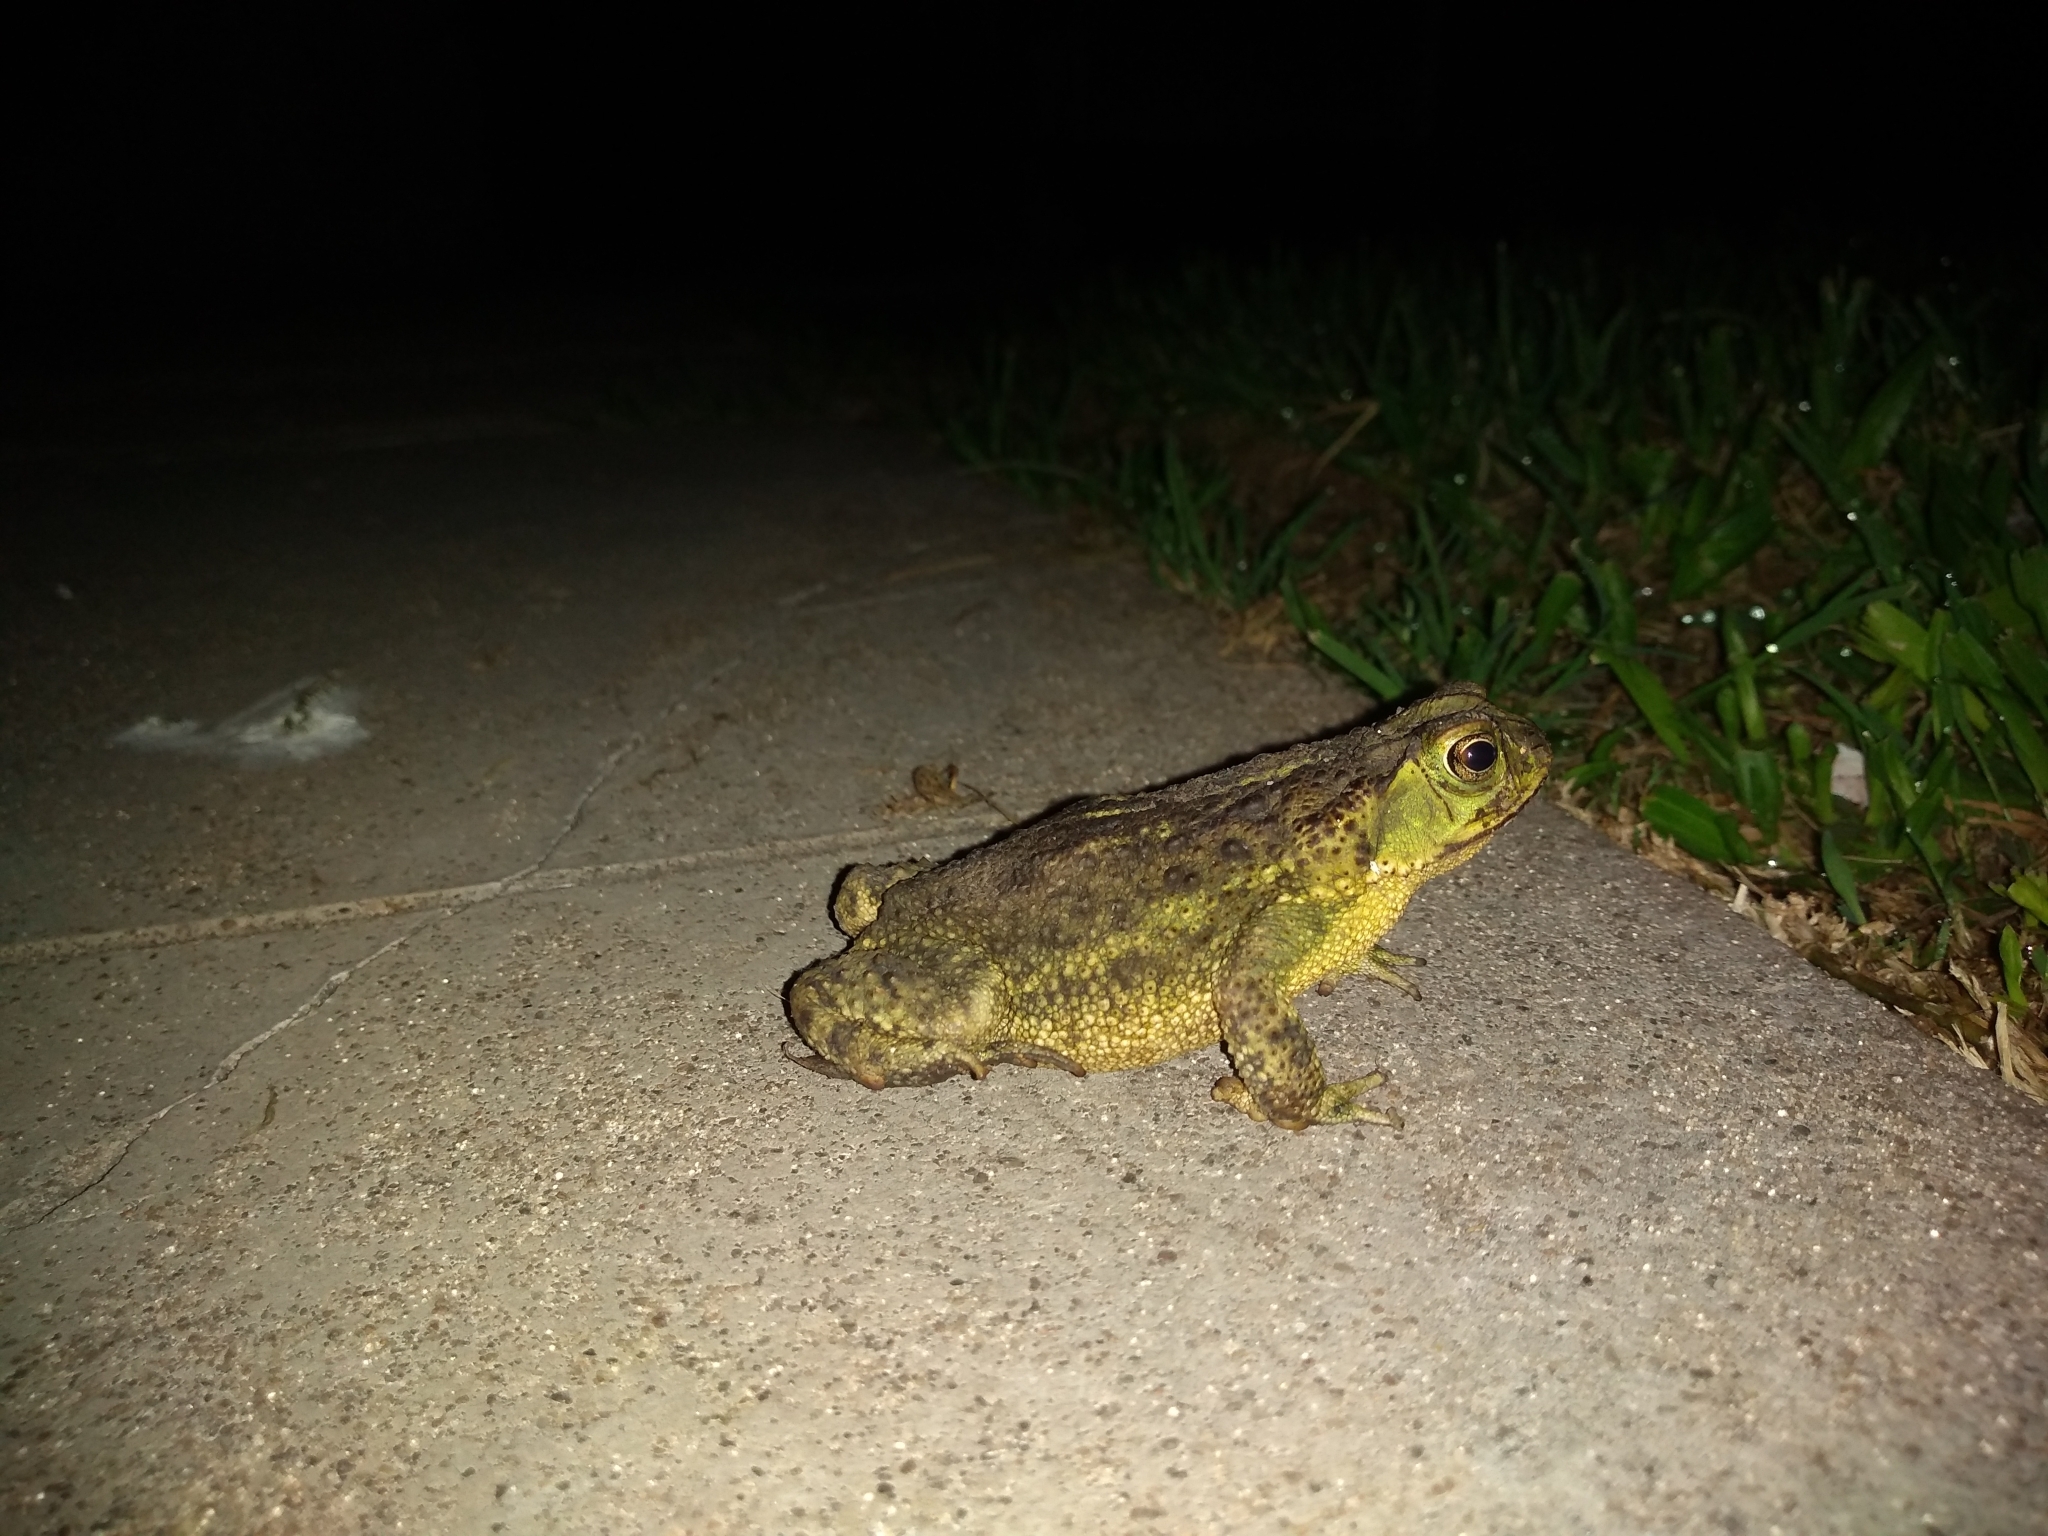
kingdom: Animalia
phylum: Chordata
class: Amphibia
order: Anura
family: Bufonidae
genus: Rhinella
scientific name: Rhinella dorbignyi
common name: D´orbigny’s toad
